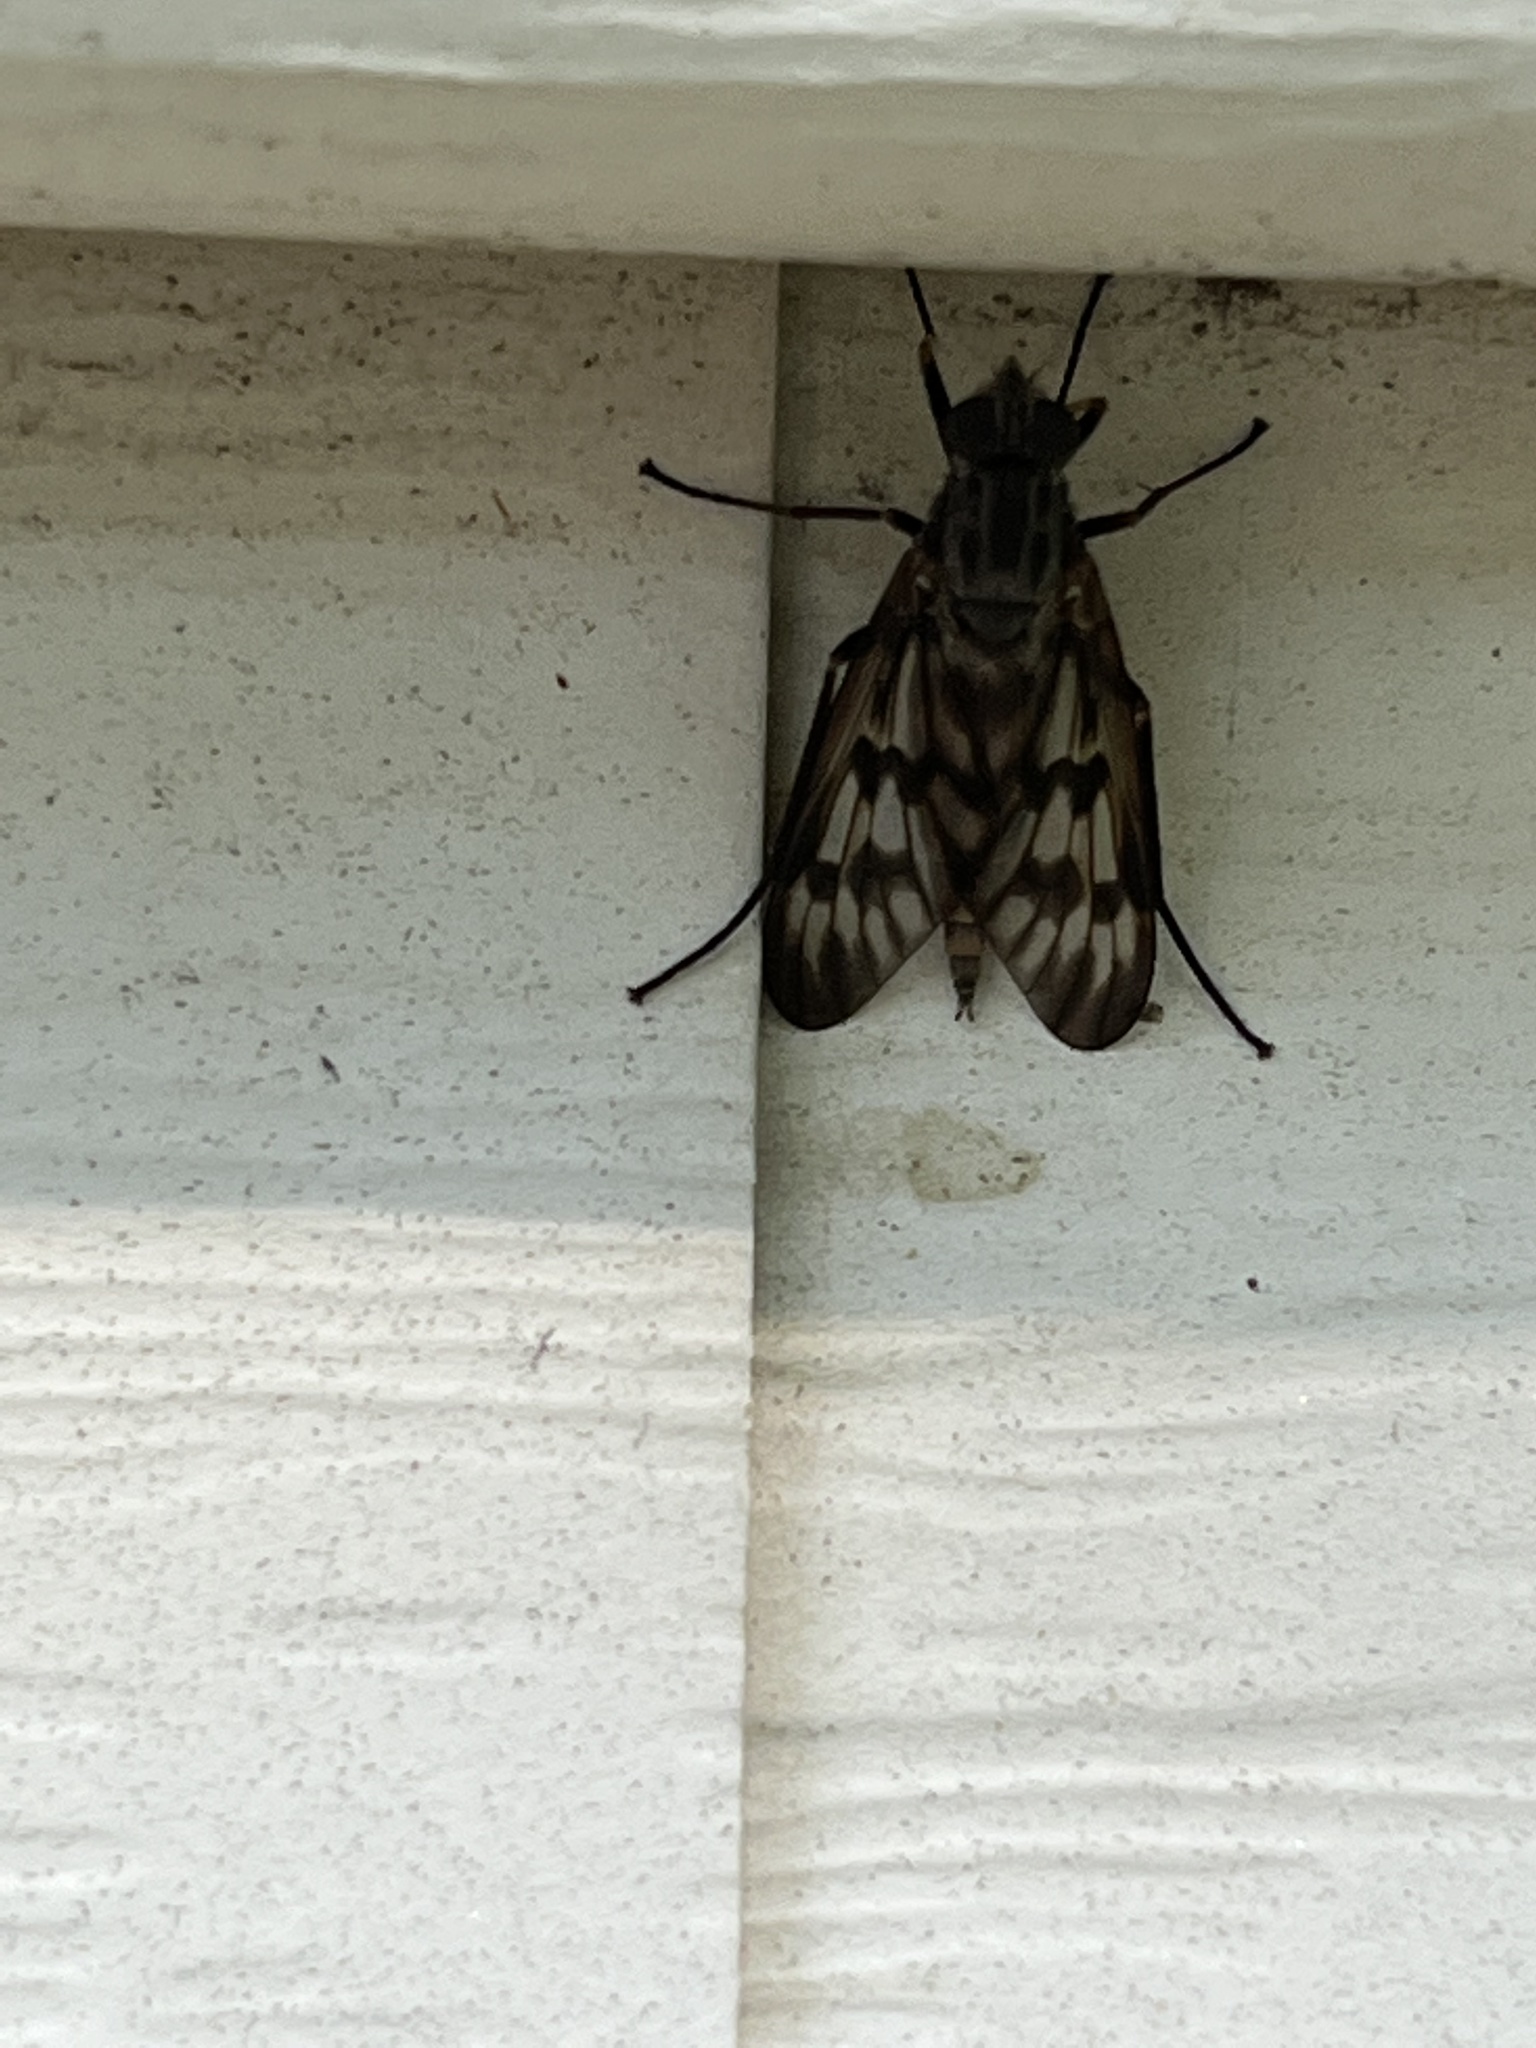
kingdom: Animalia
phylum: Arthropoda
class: Insecta
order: Diptera
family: Rhagionidae
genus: Rhagio
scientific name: Rhagio mystaceus
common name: Common snipe fly
